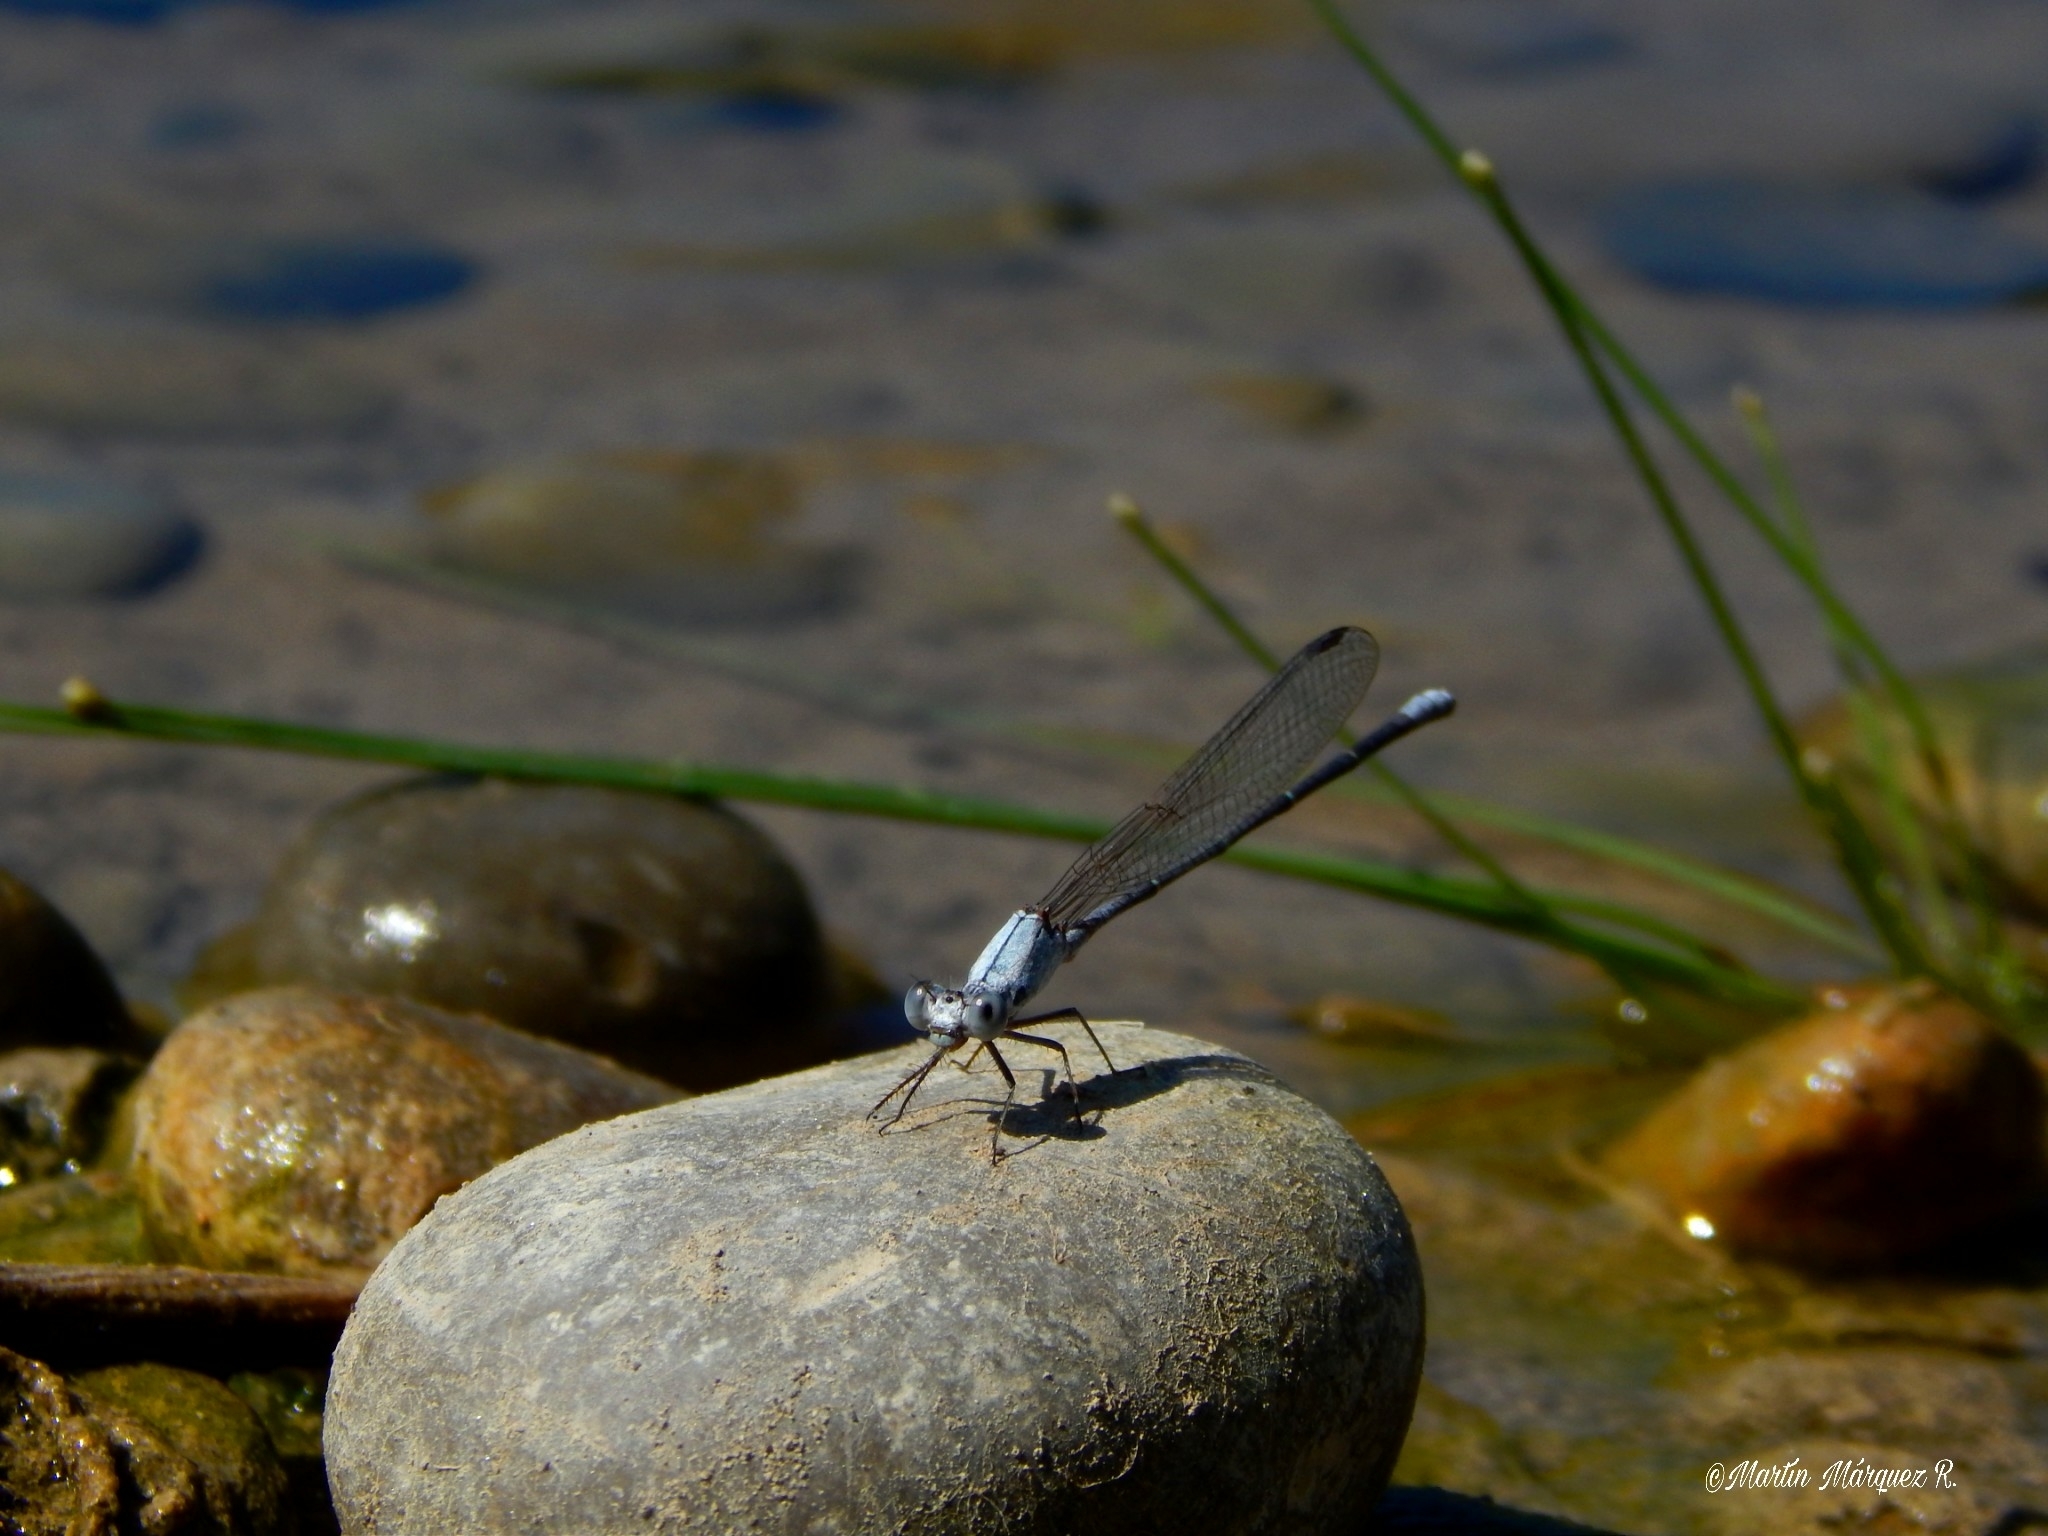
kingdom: Animalia
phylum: Arthropoda
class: Insecta
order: Odonata
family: Coenagrionidae
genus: Argia
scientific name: Argia moesta
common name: Powdered dancer
